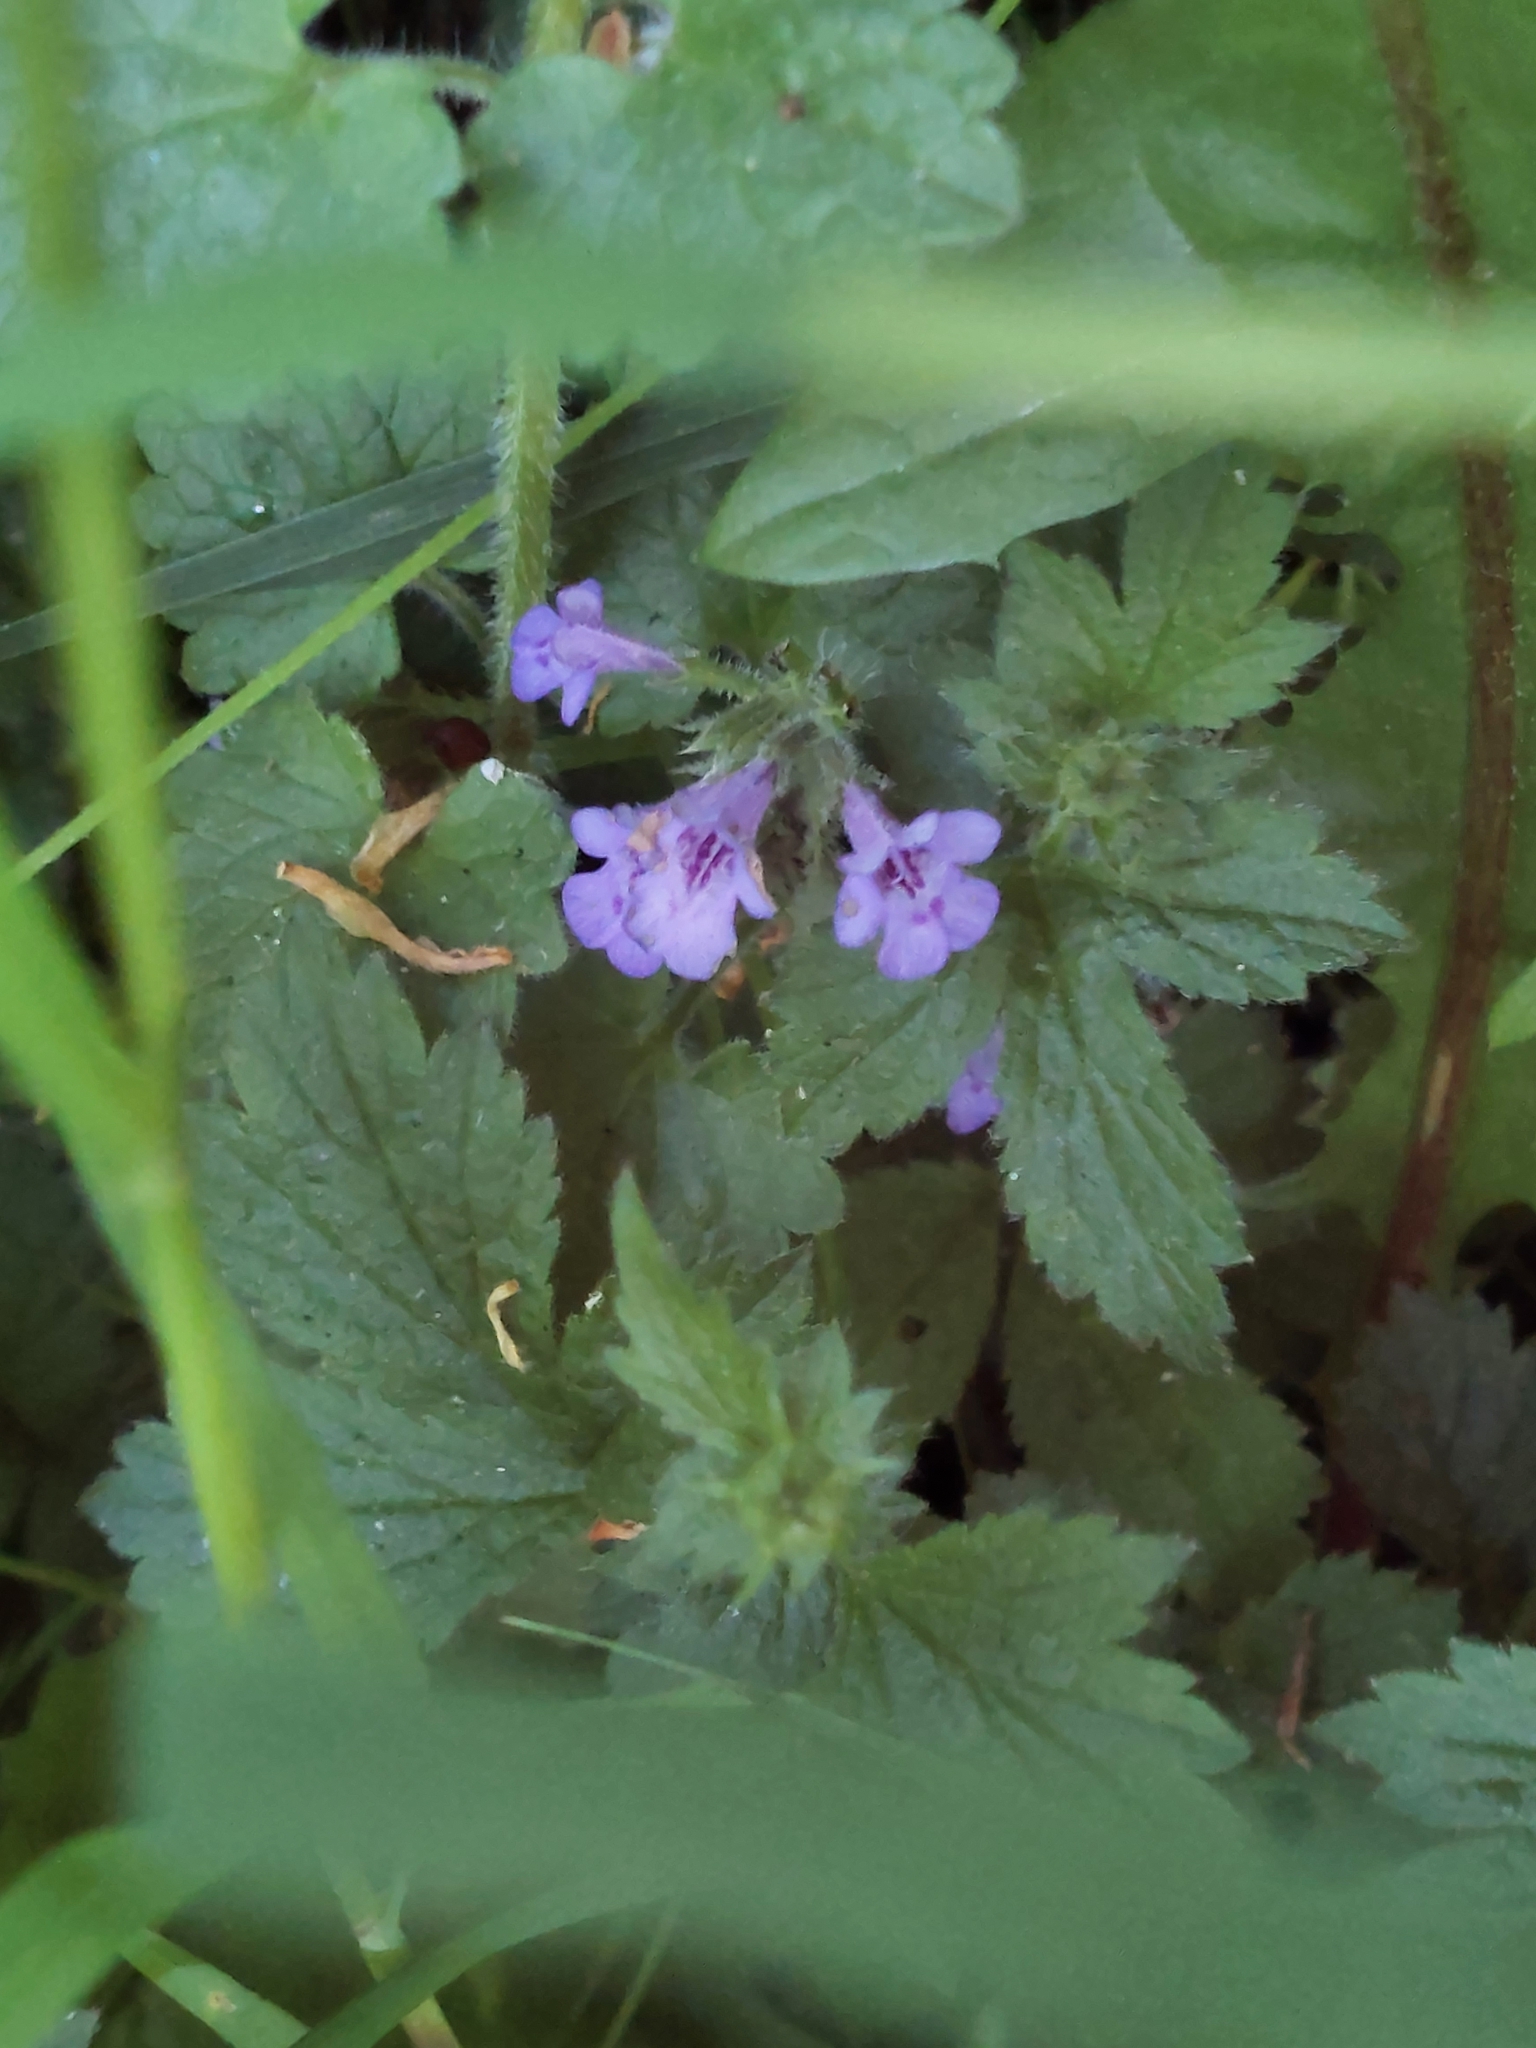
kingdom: Plantae
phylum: Tracheophyta
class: Magnoliopsida
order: Lamiales
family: Lamiaceae
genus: Glechoma
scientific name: Glechoma hederacea
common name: Ground ivy
